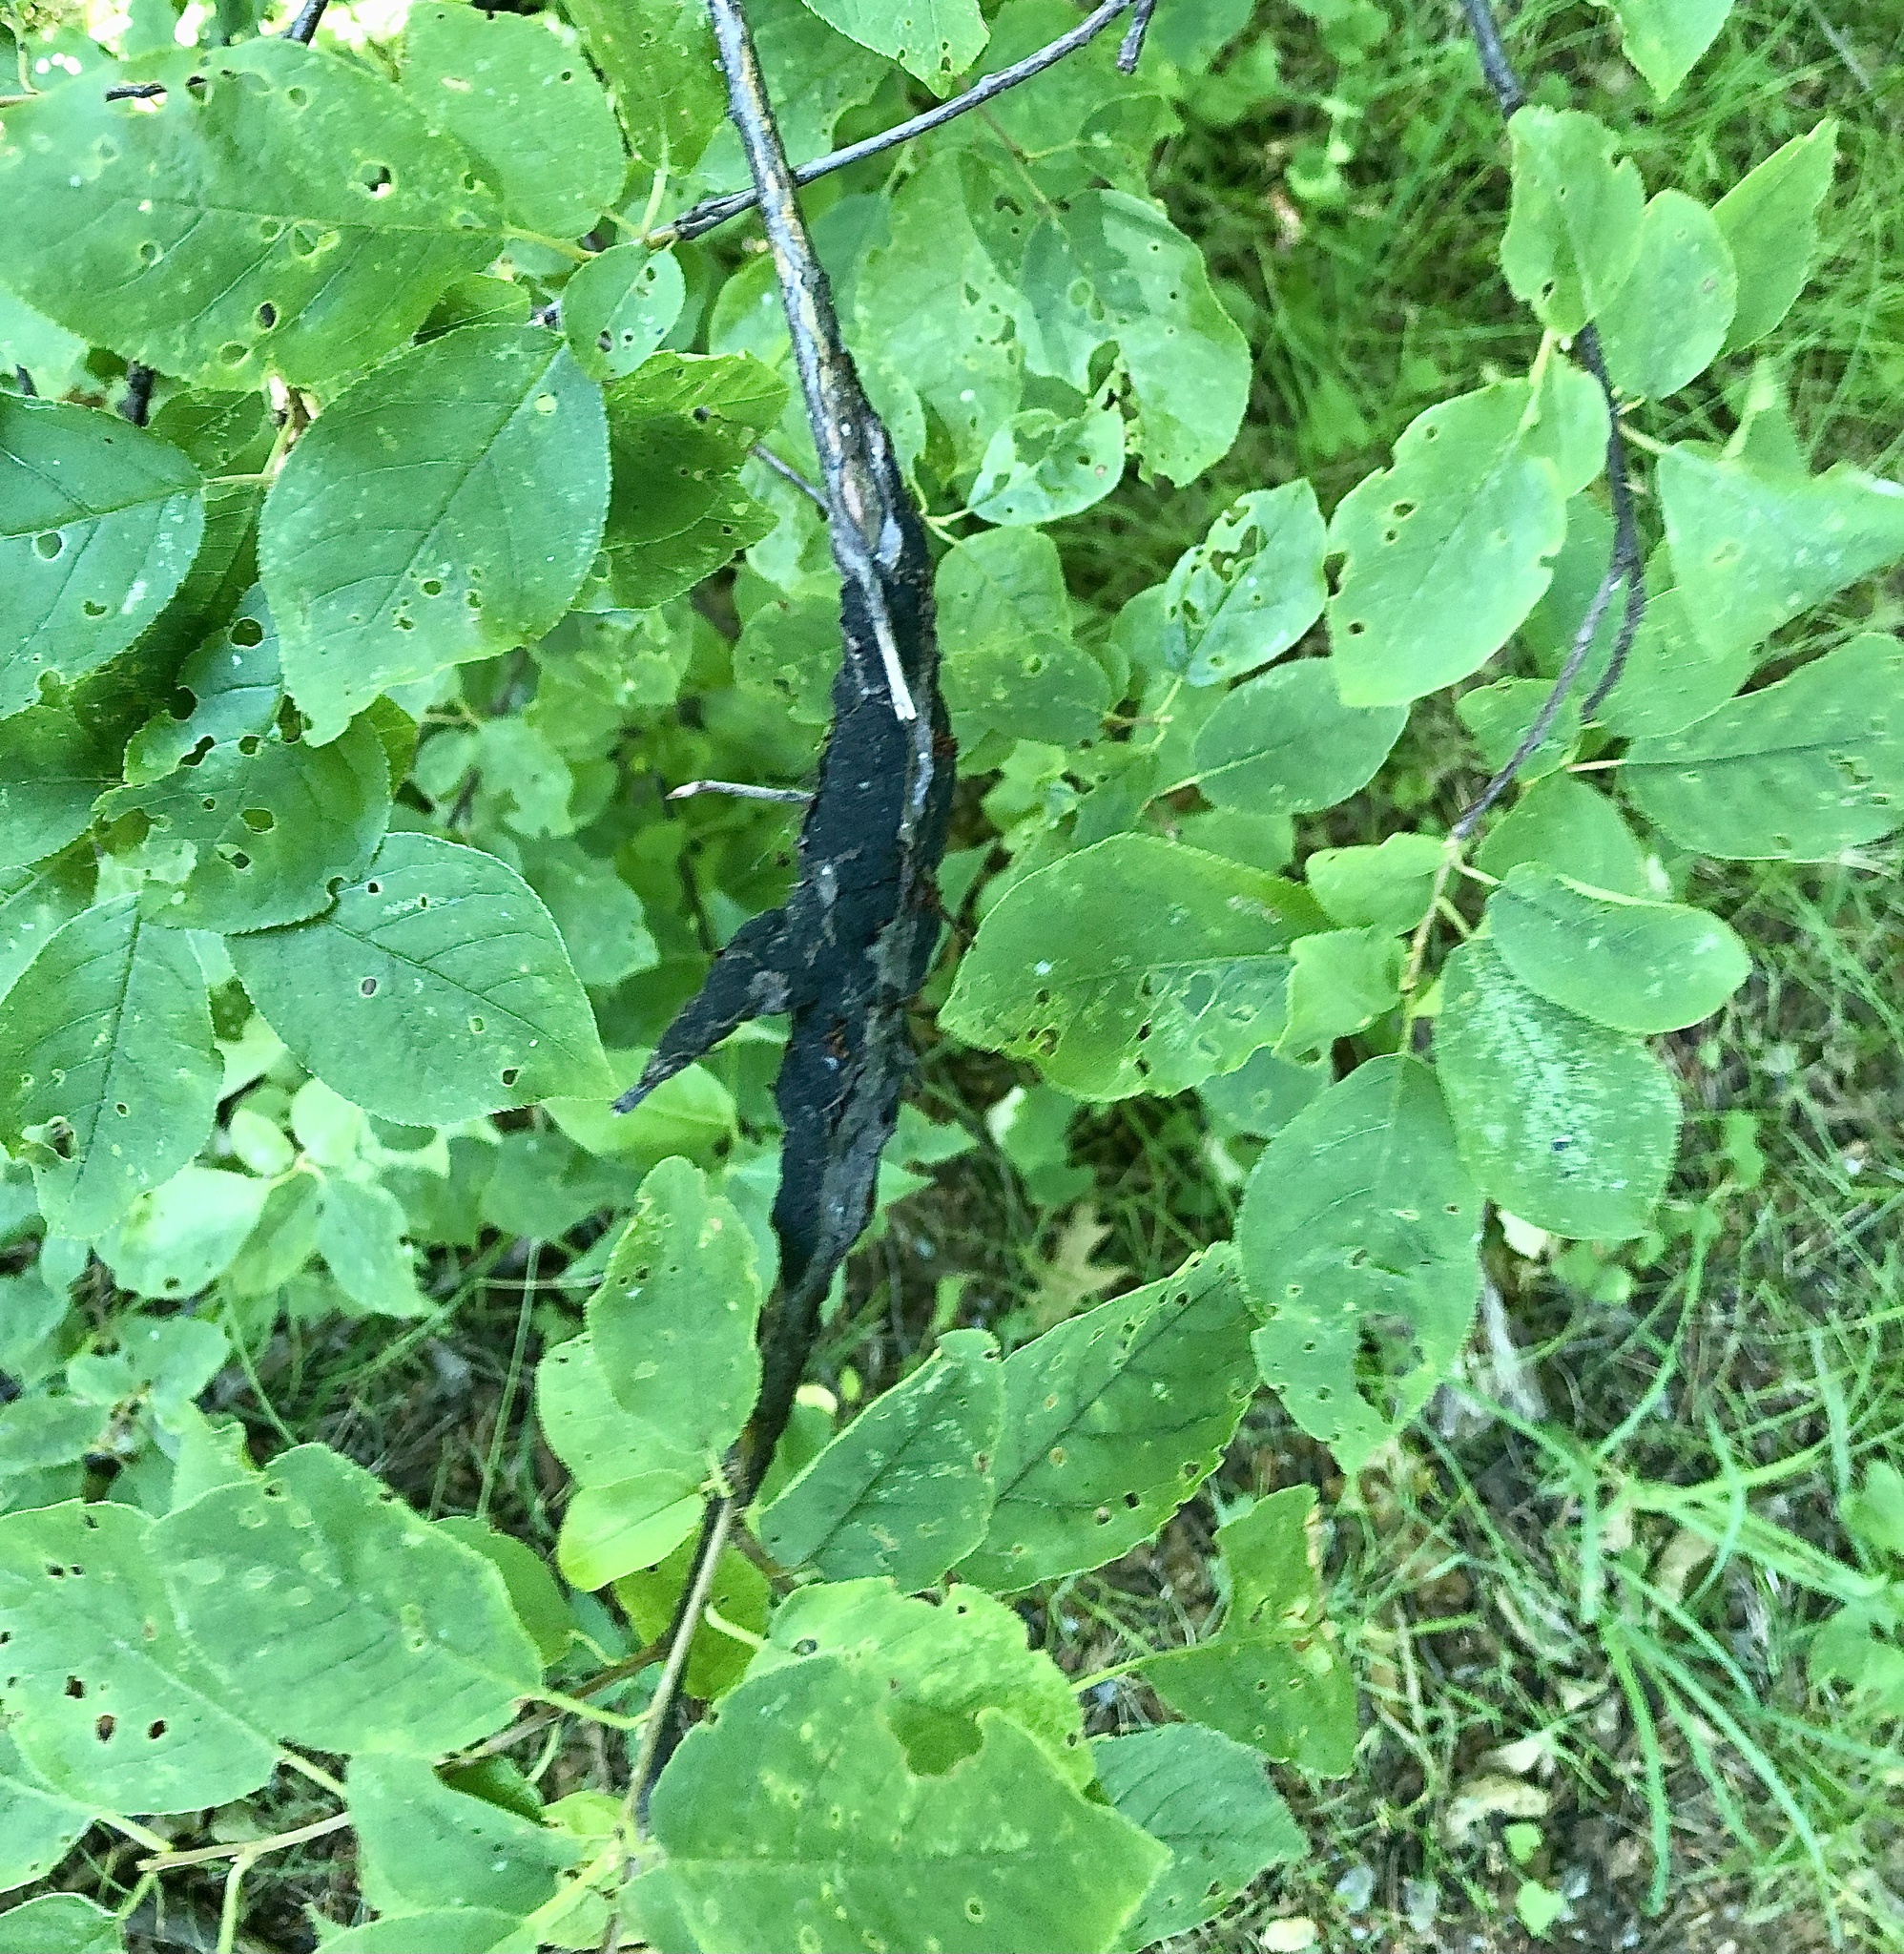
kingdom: Fungi
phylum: Ascomycota
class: Dothideomycetes
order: Venturiales
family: Venturiaceae
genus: Apiosporina
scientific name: Apiosporina morbosa
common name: Black knot
